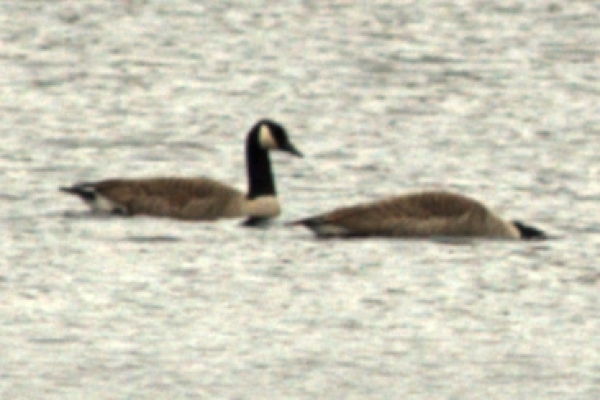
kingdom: Animalia
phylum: Chordata
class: Aves
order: Anseriformes
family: Anatidae
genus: Branta
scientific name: Branta canadensis
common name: Canada goose
